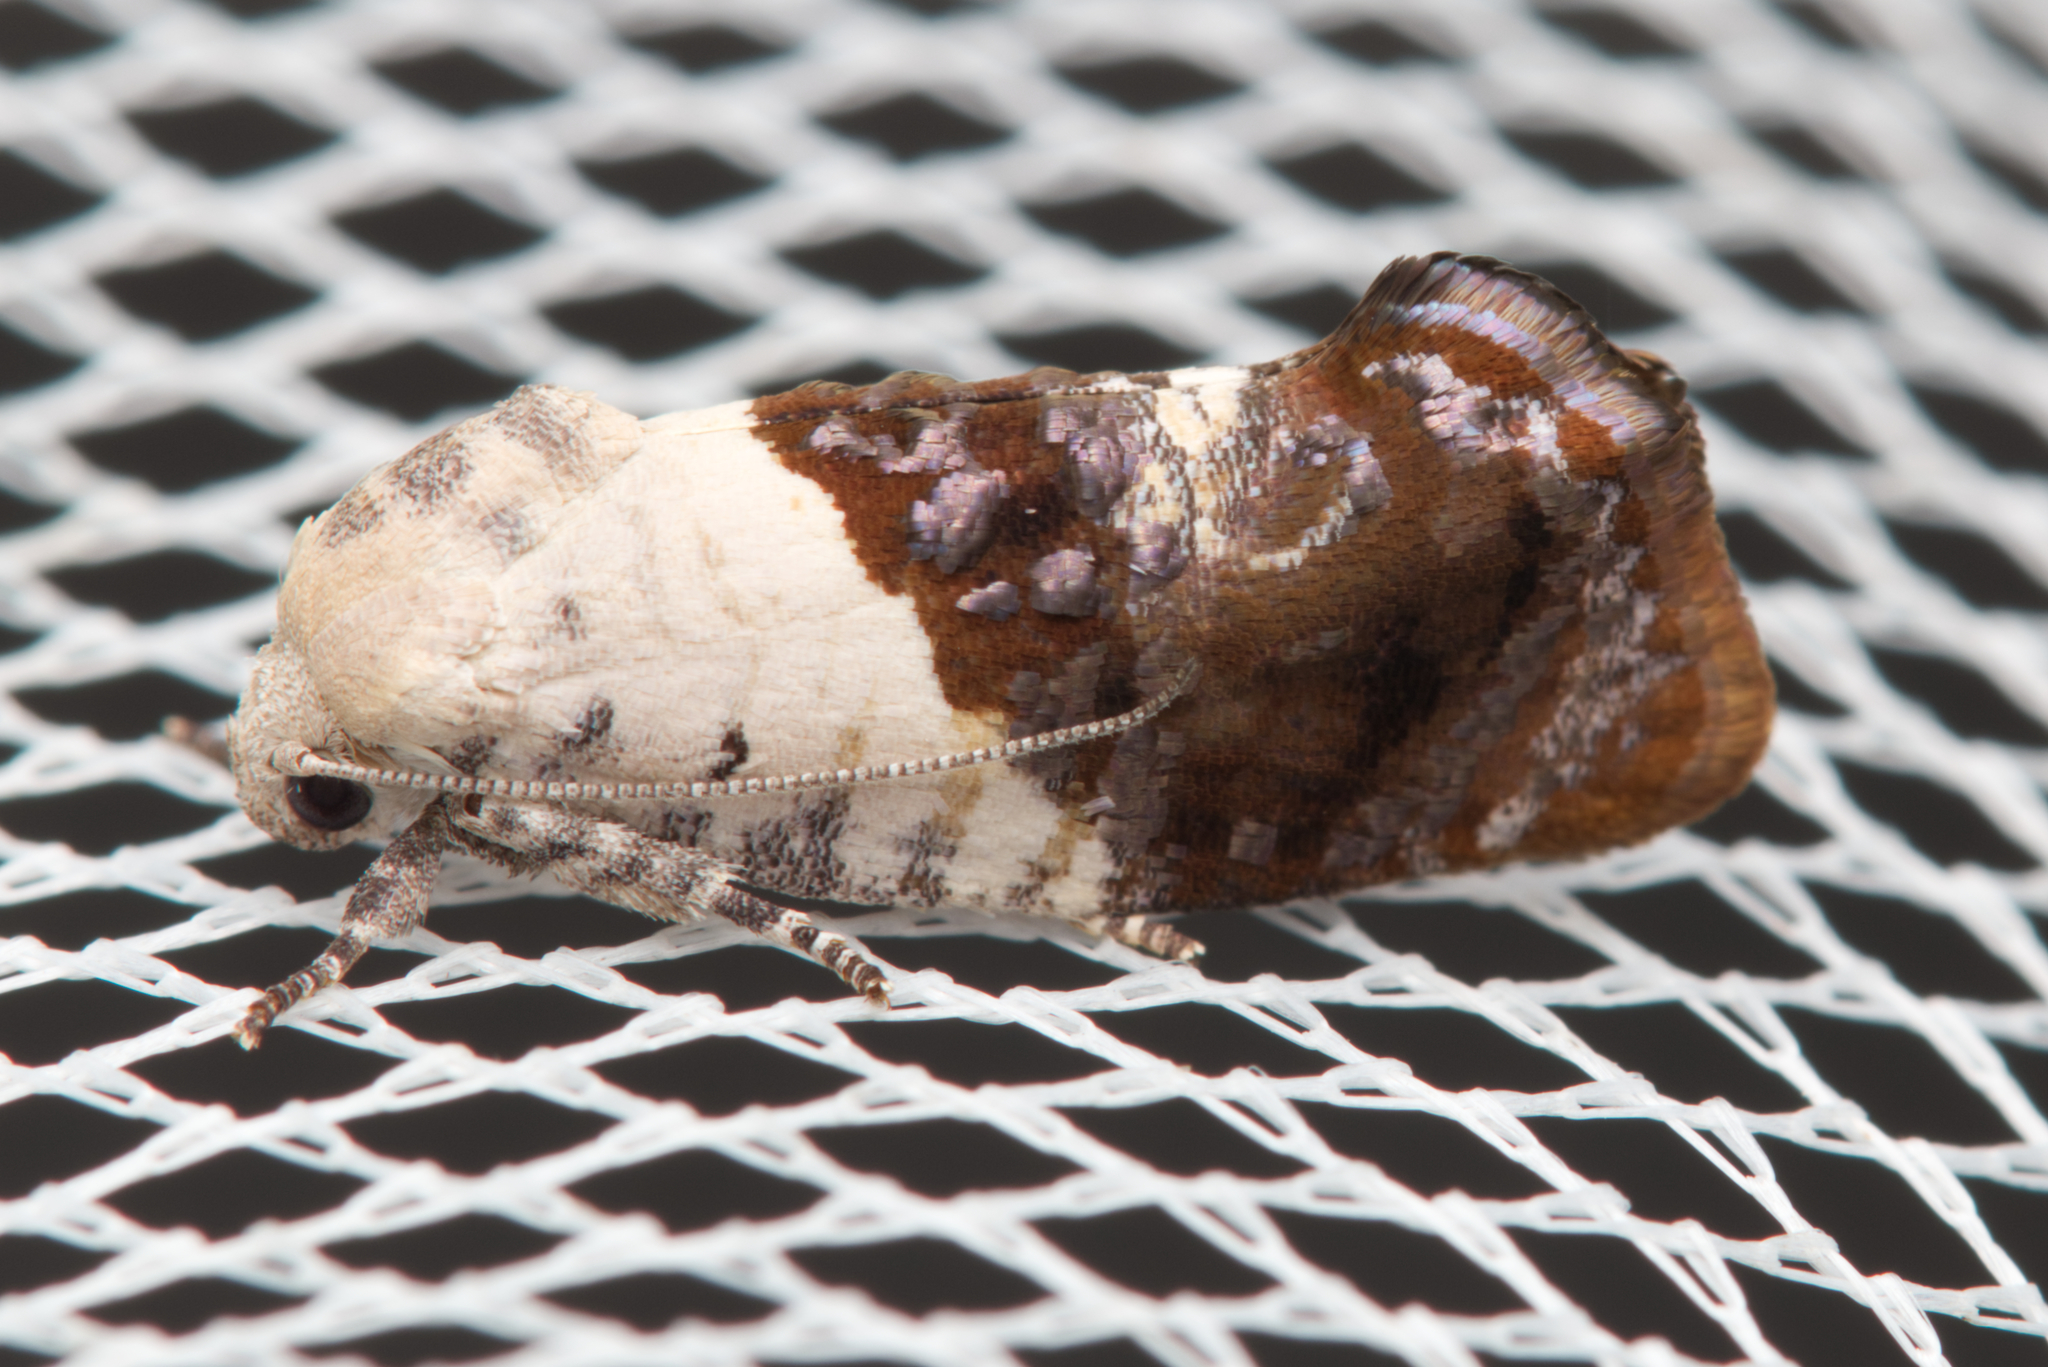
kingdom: Animalia
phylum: Arthropoda
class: Insecta
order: Lepidoptera
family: Depressariidae
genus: Hypertropha
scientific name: Hypertropha chlaenota
